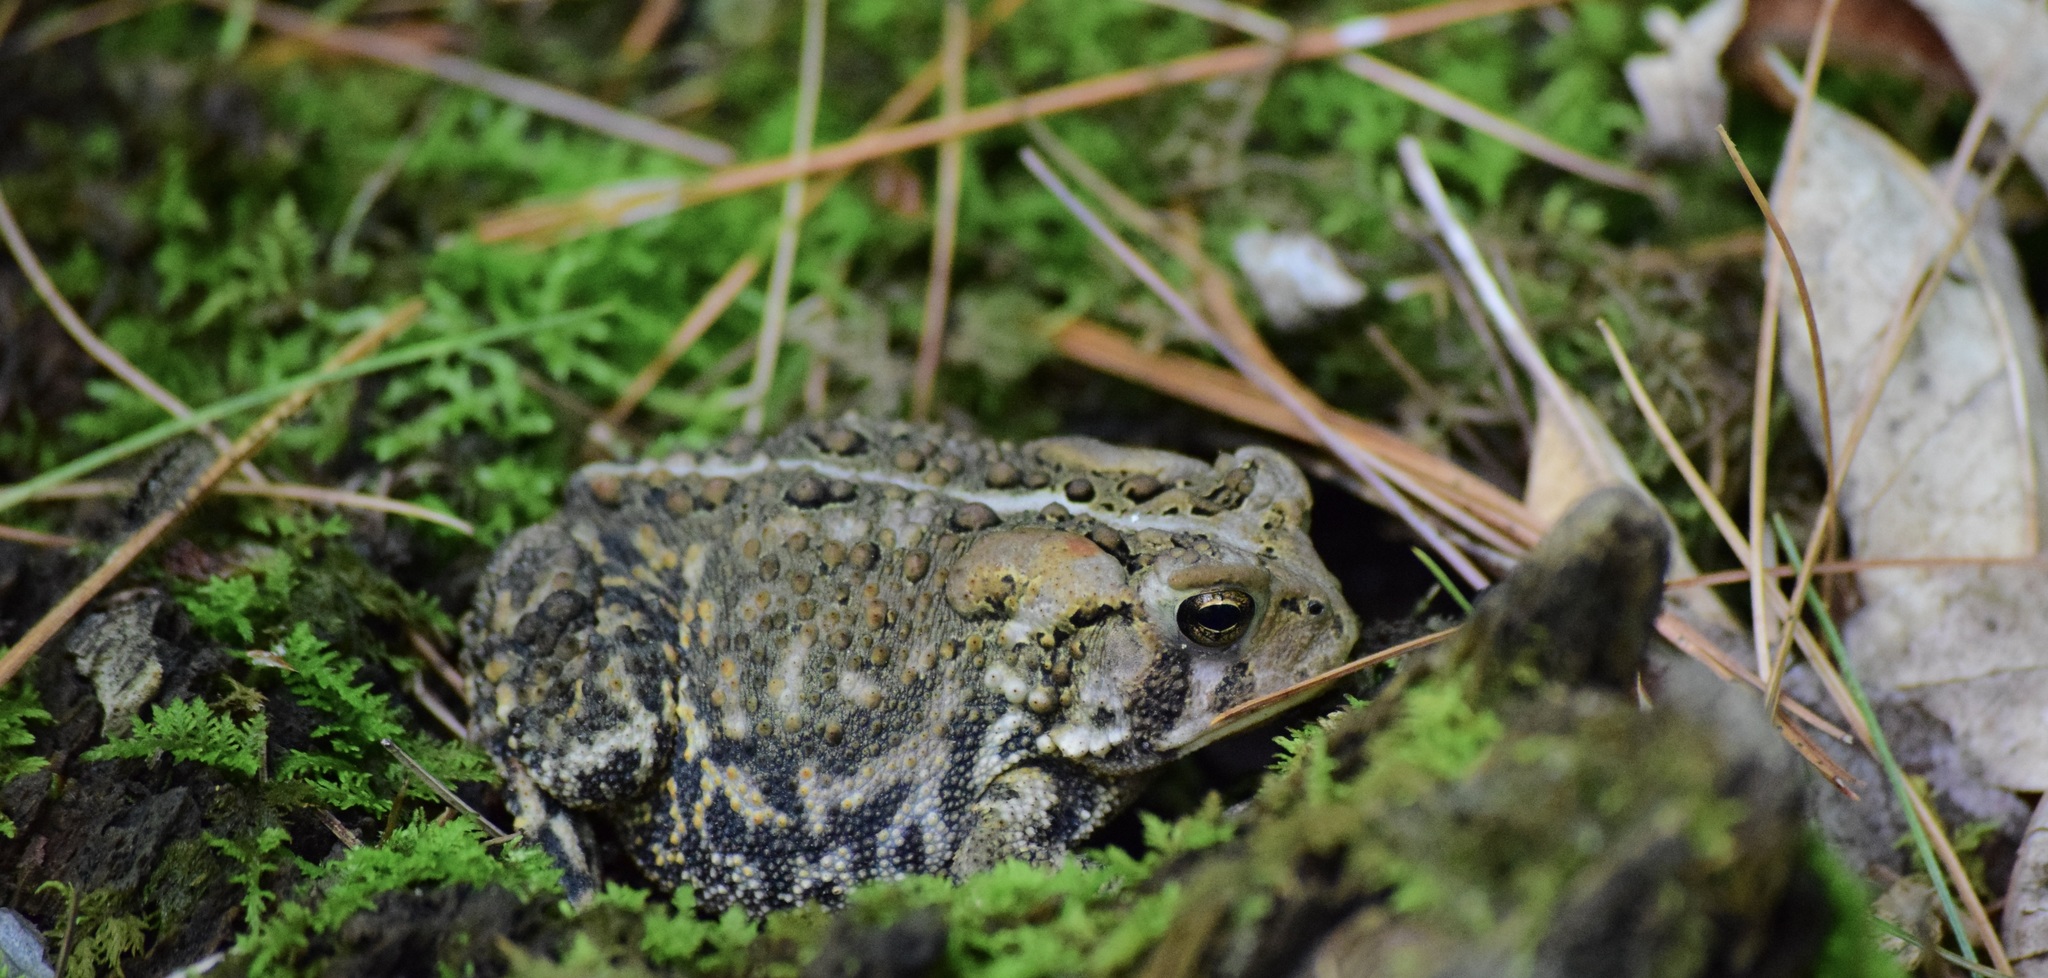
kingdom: Animalia
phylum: Chordata
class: Amphibia
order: Anura
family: Bufonidae
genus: Anaxyrus
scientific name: Anaxyrus americanus
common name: American toad
